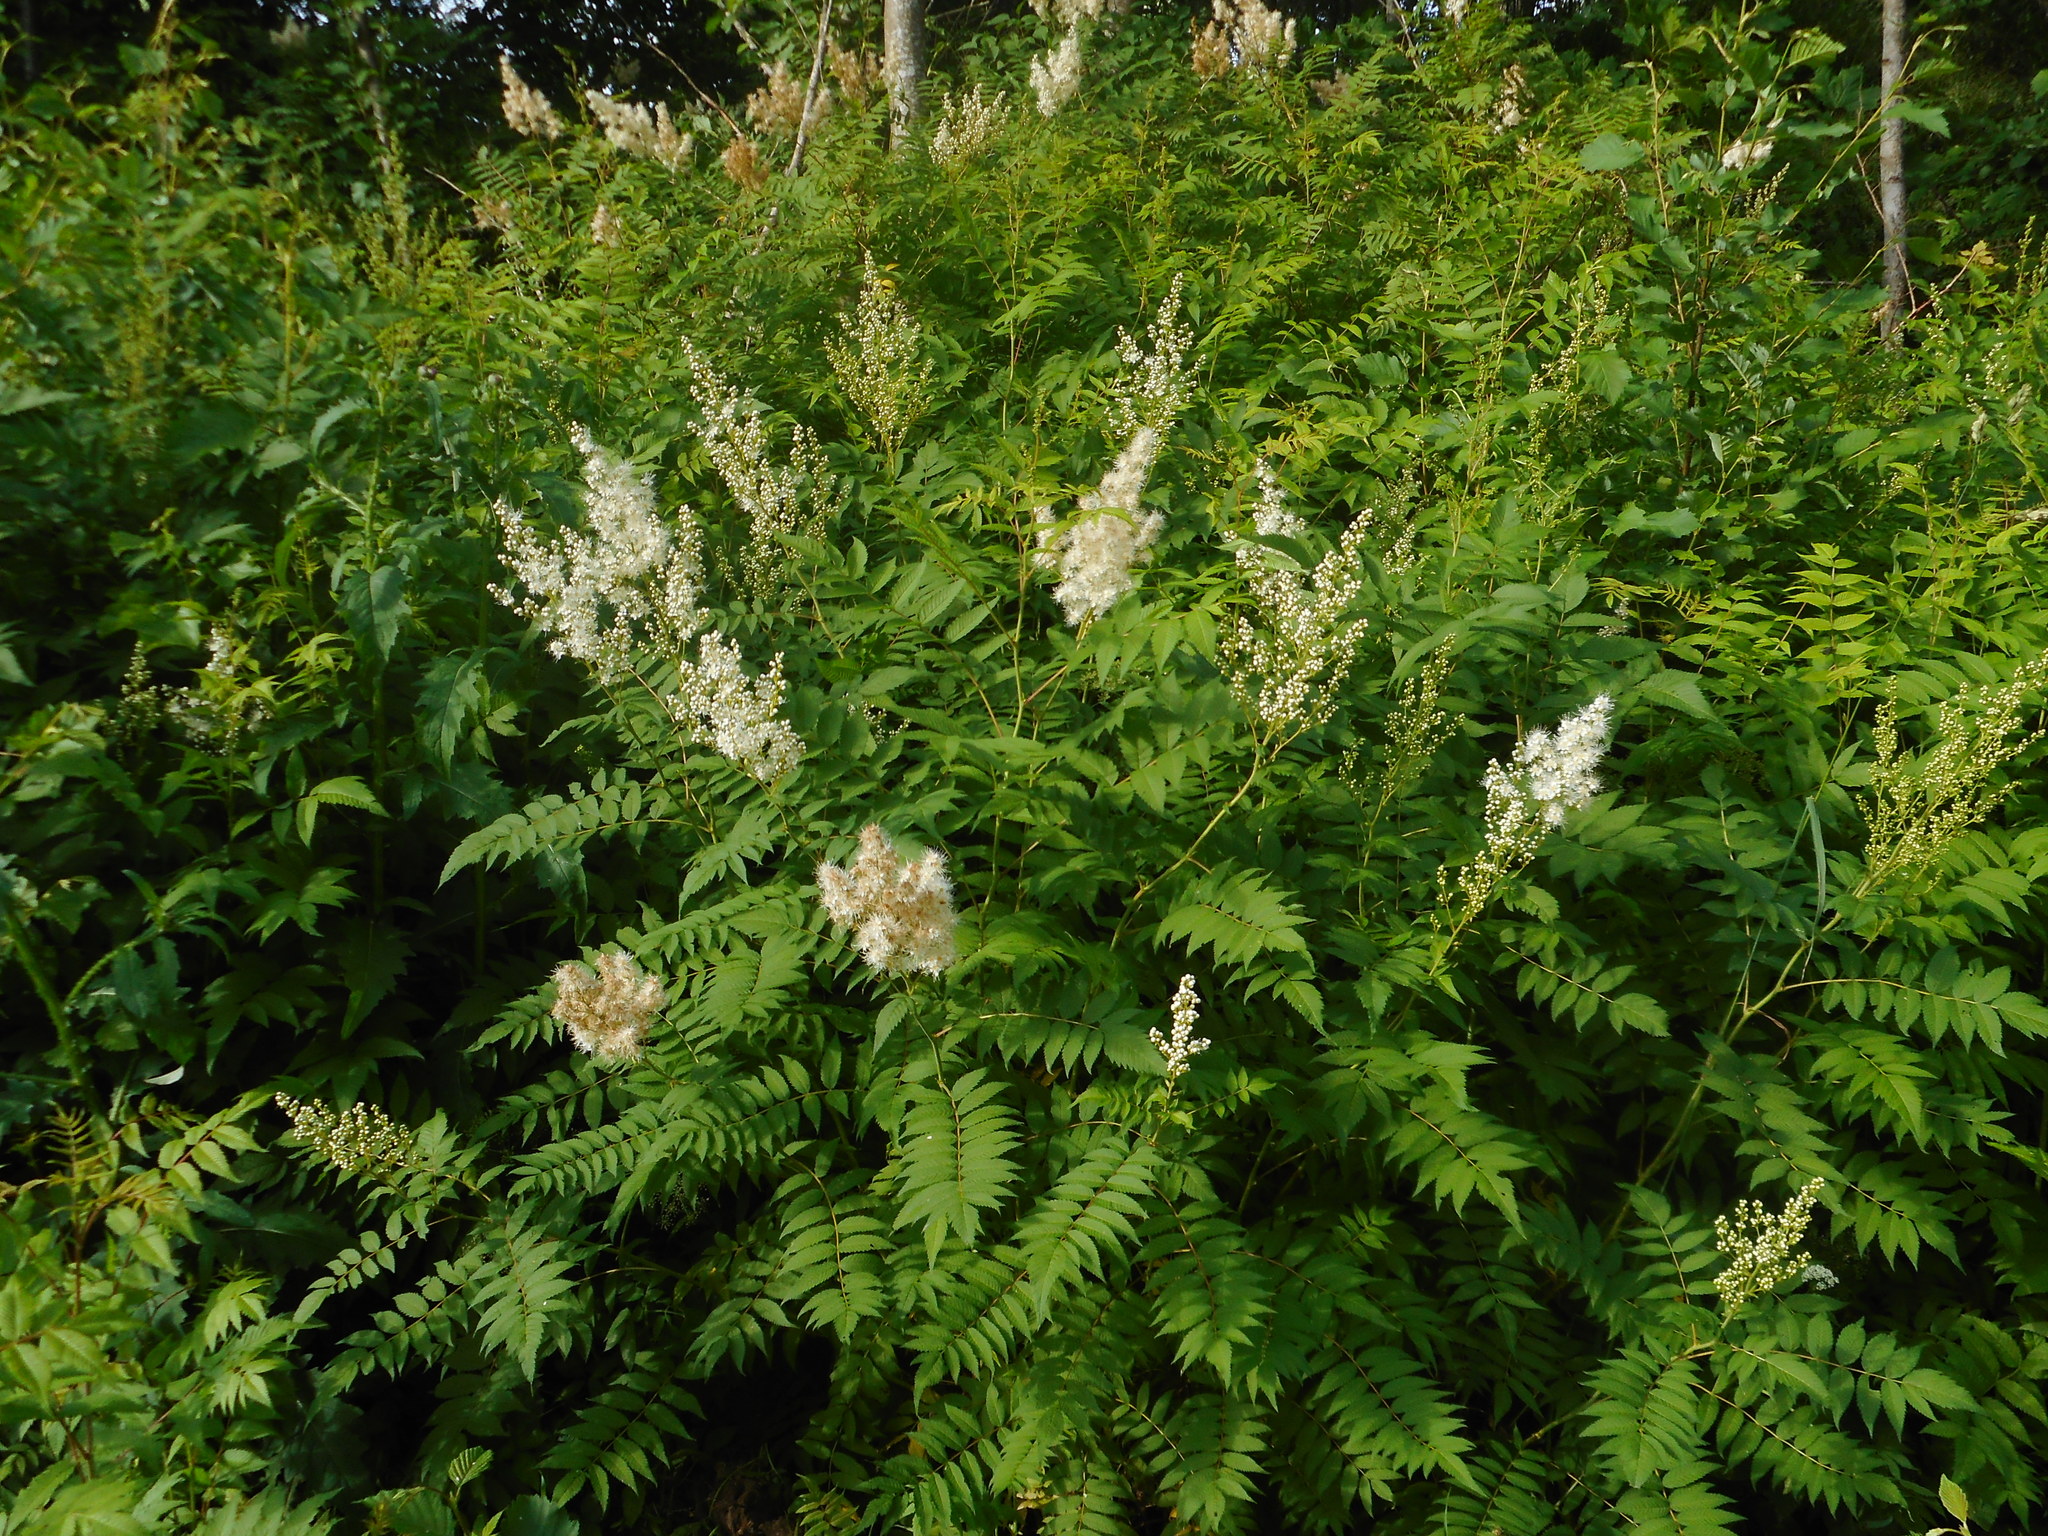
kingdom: Plantae
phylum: Tracheophyta
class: Magnoliopsida
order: Rosales
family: Rosaceae
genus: Sorbaria
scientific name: Sorbaria sorbifolia
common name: False spiraea
